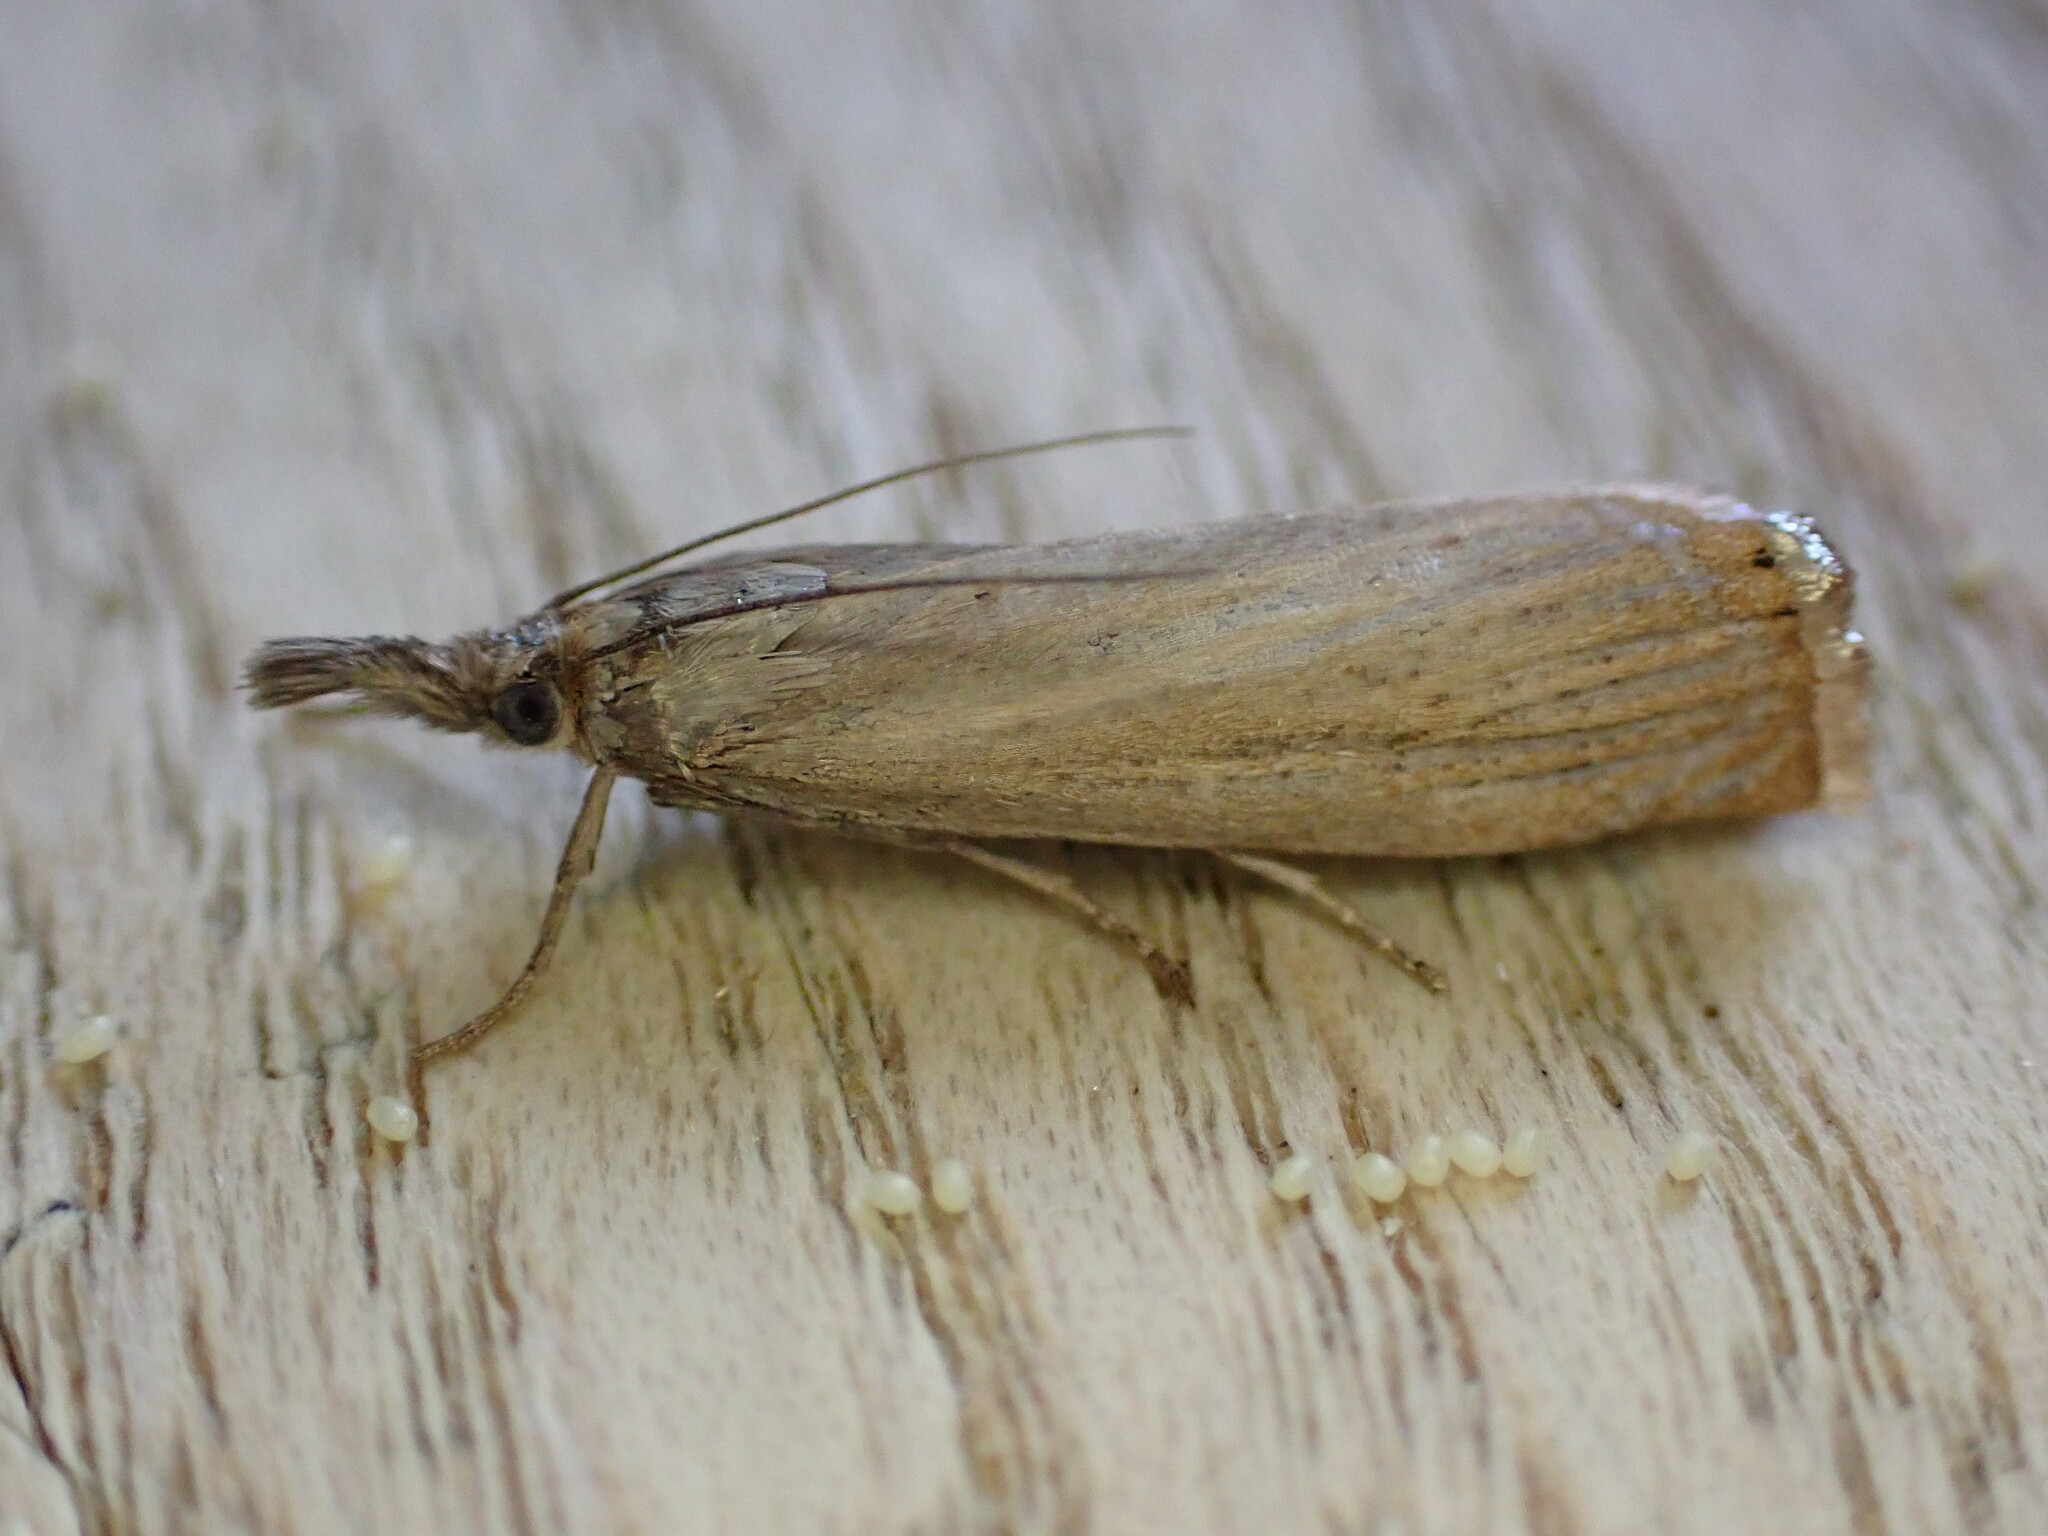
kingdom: Animalia
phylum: Arthropoda
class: Insecta
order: Lepidoptera
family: Crambidae
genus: Agriphila
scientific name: Agriphila straminella
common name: Straw grass-veneer
